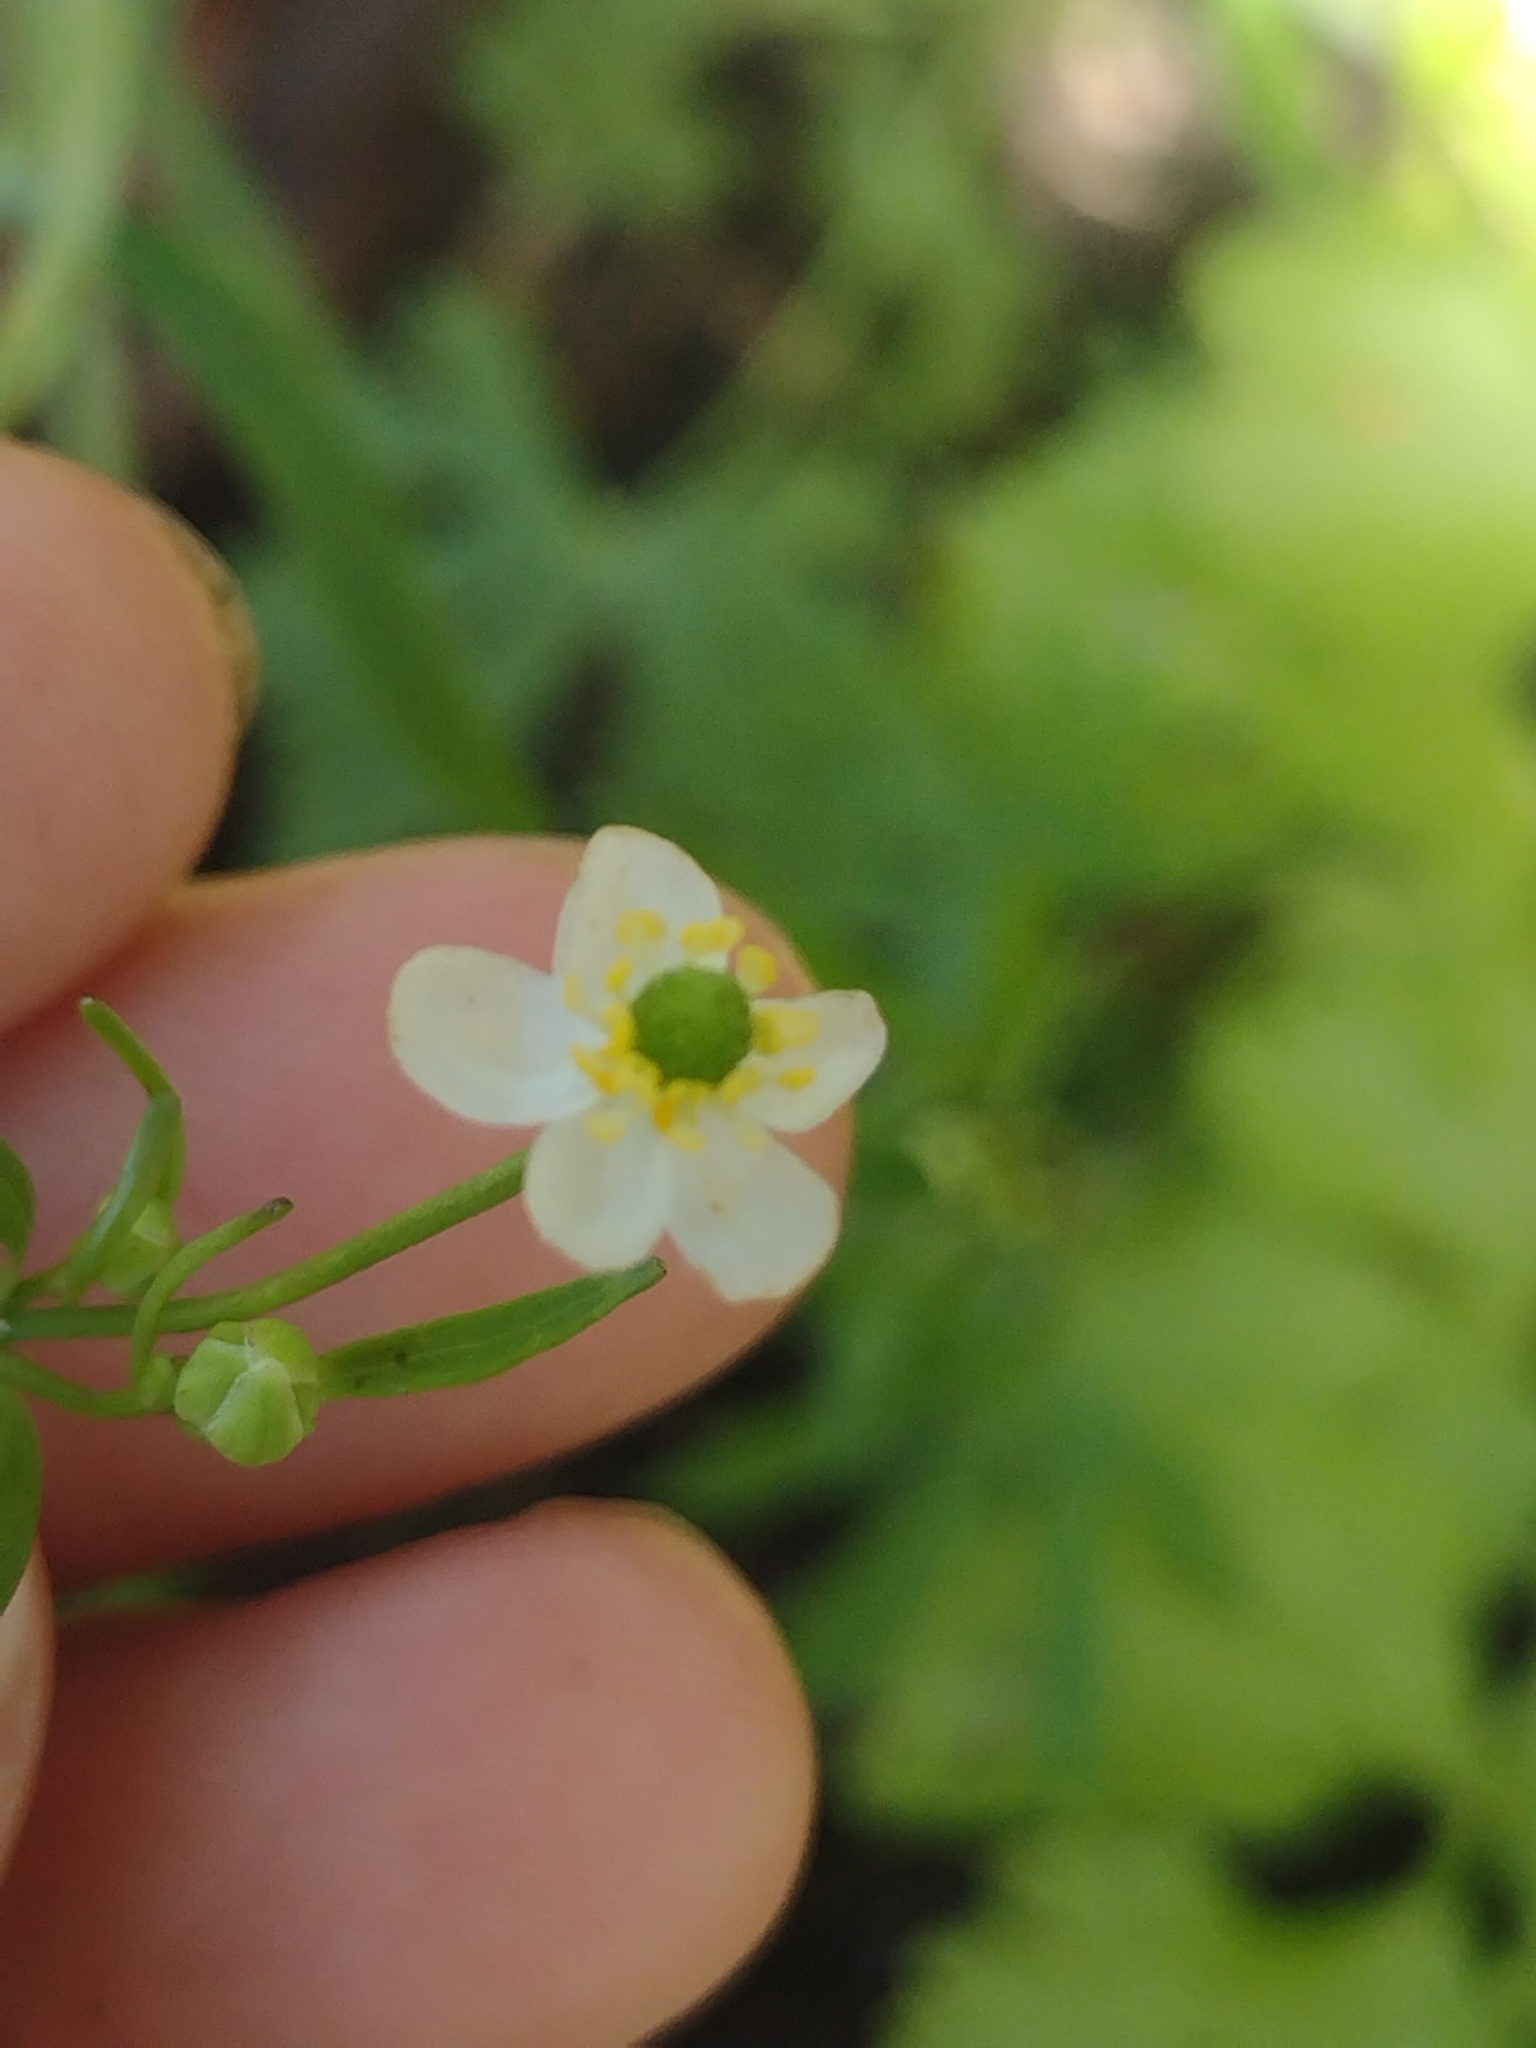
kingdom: Plantae
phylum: Tracheophyta
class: Magnoliopsida
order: Ranunculales
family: Ranunculaceae
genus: Ranunculus
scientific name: Ranunculus apiifolius
